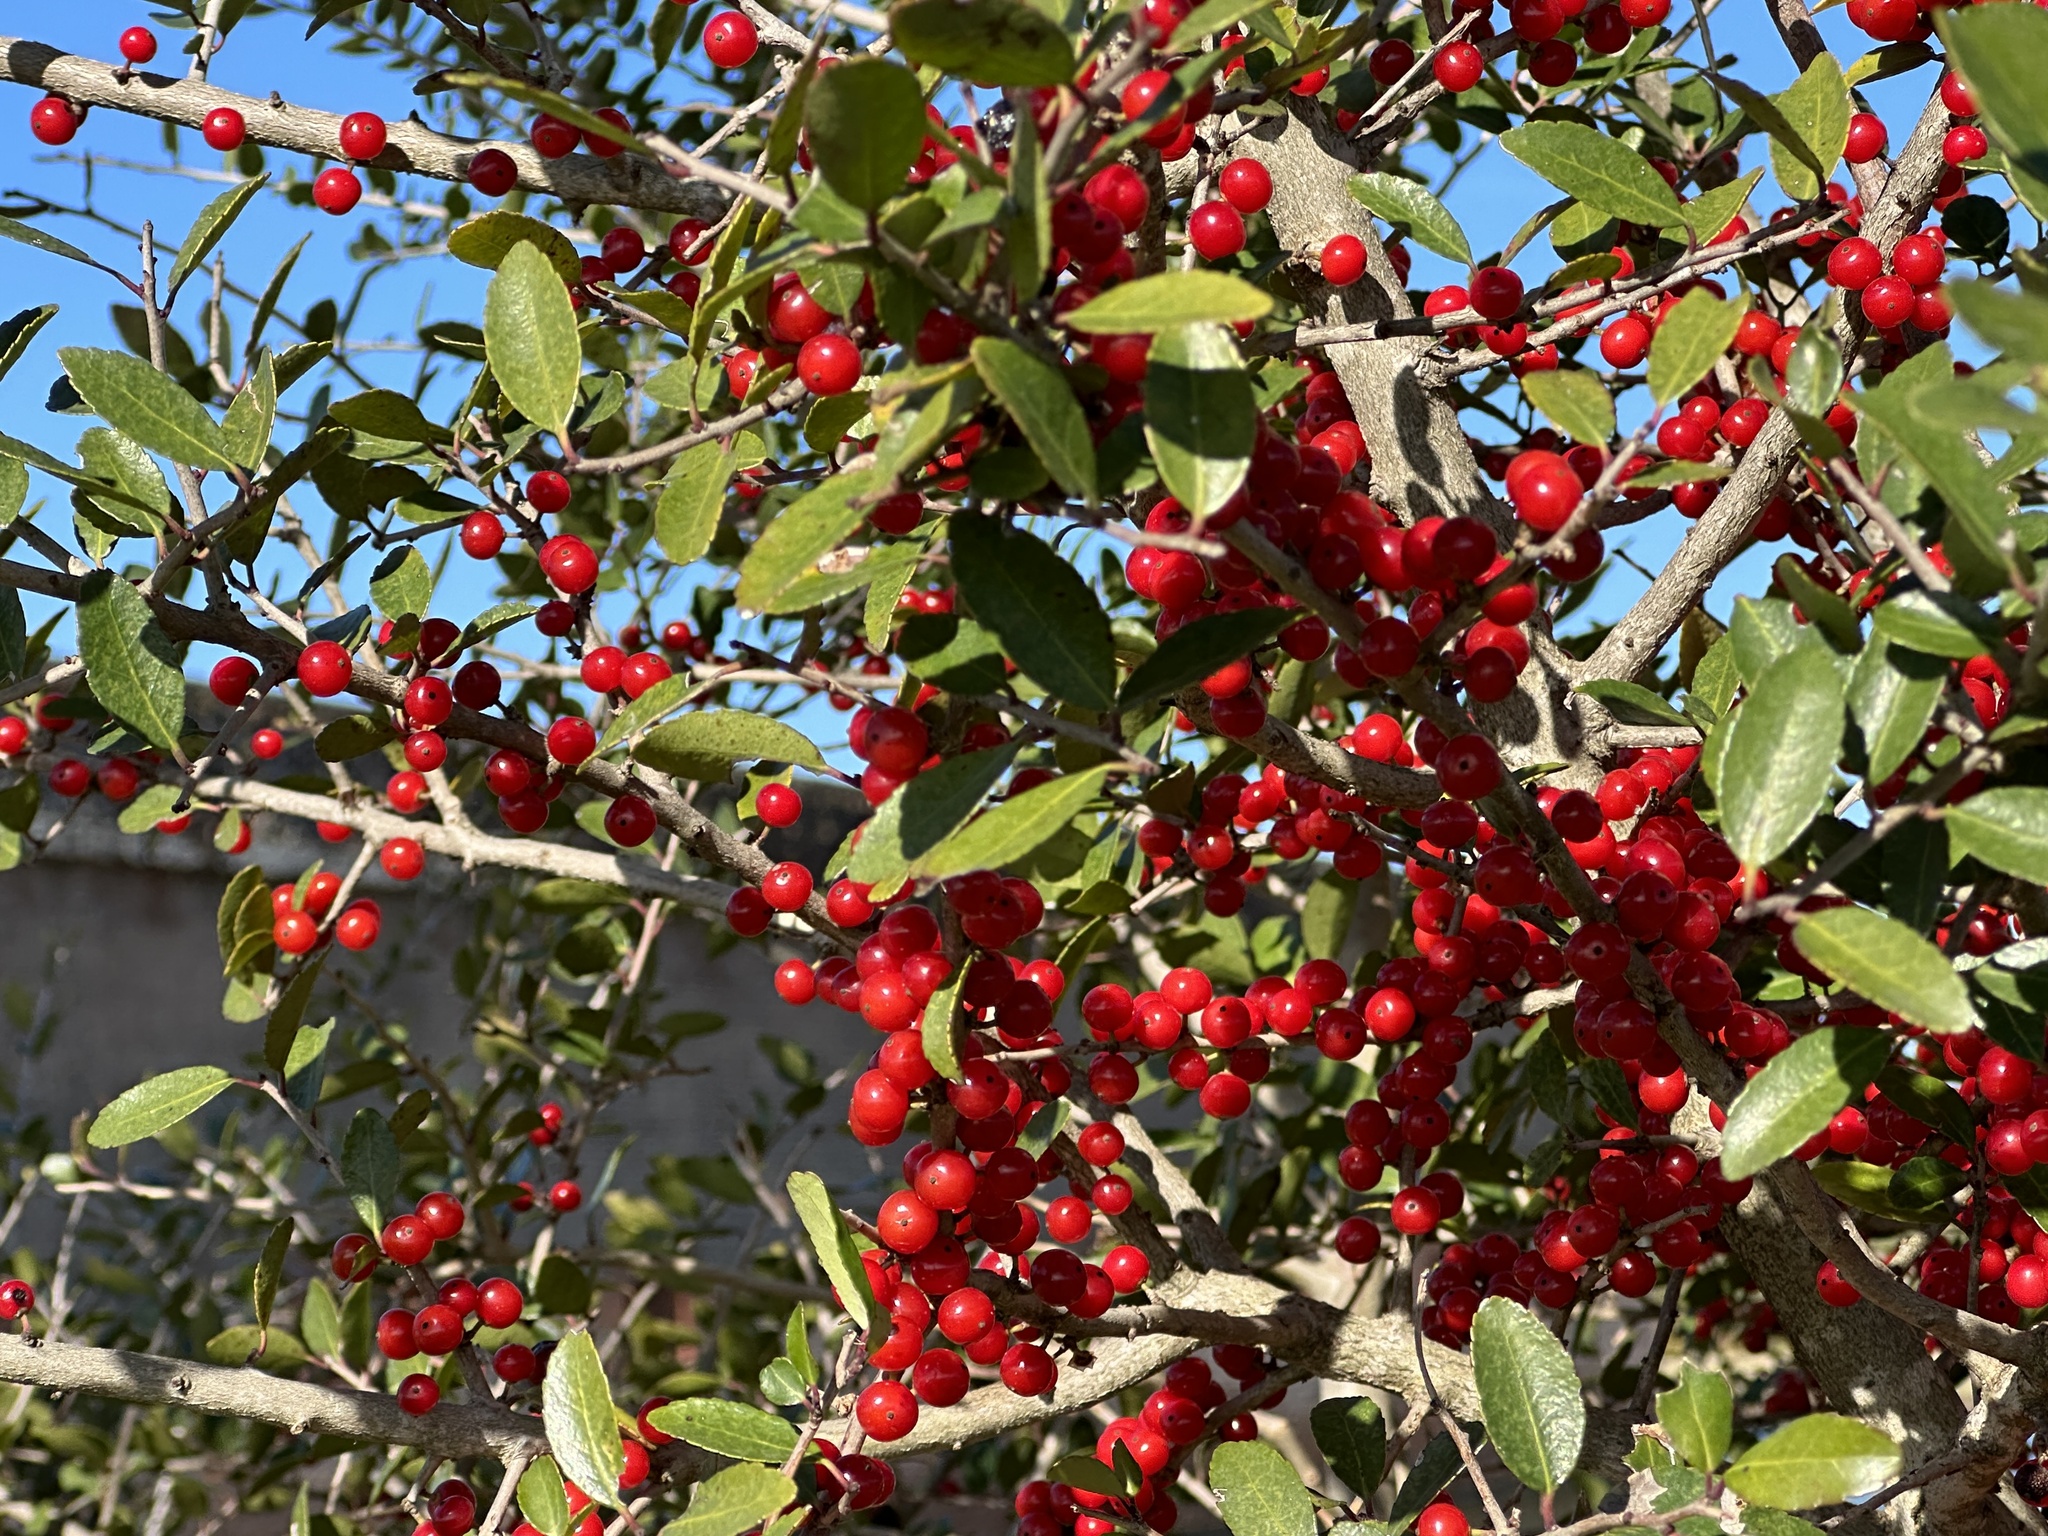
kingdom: Plantae
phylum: Tracheophyta
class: Magnoliopsida
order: Aquifoliales
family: Aquifoliaceae
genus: Ilex
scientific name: Ilex vomitoria
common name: Yaupon holly
